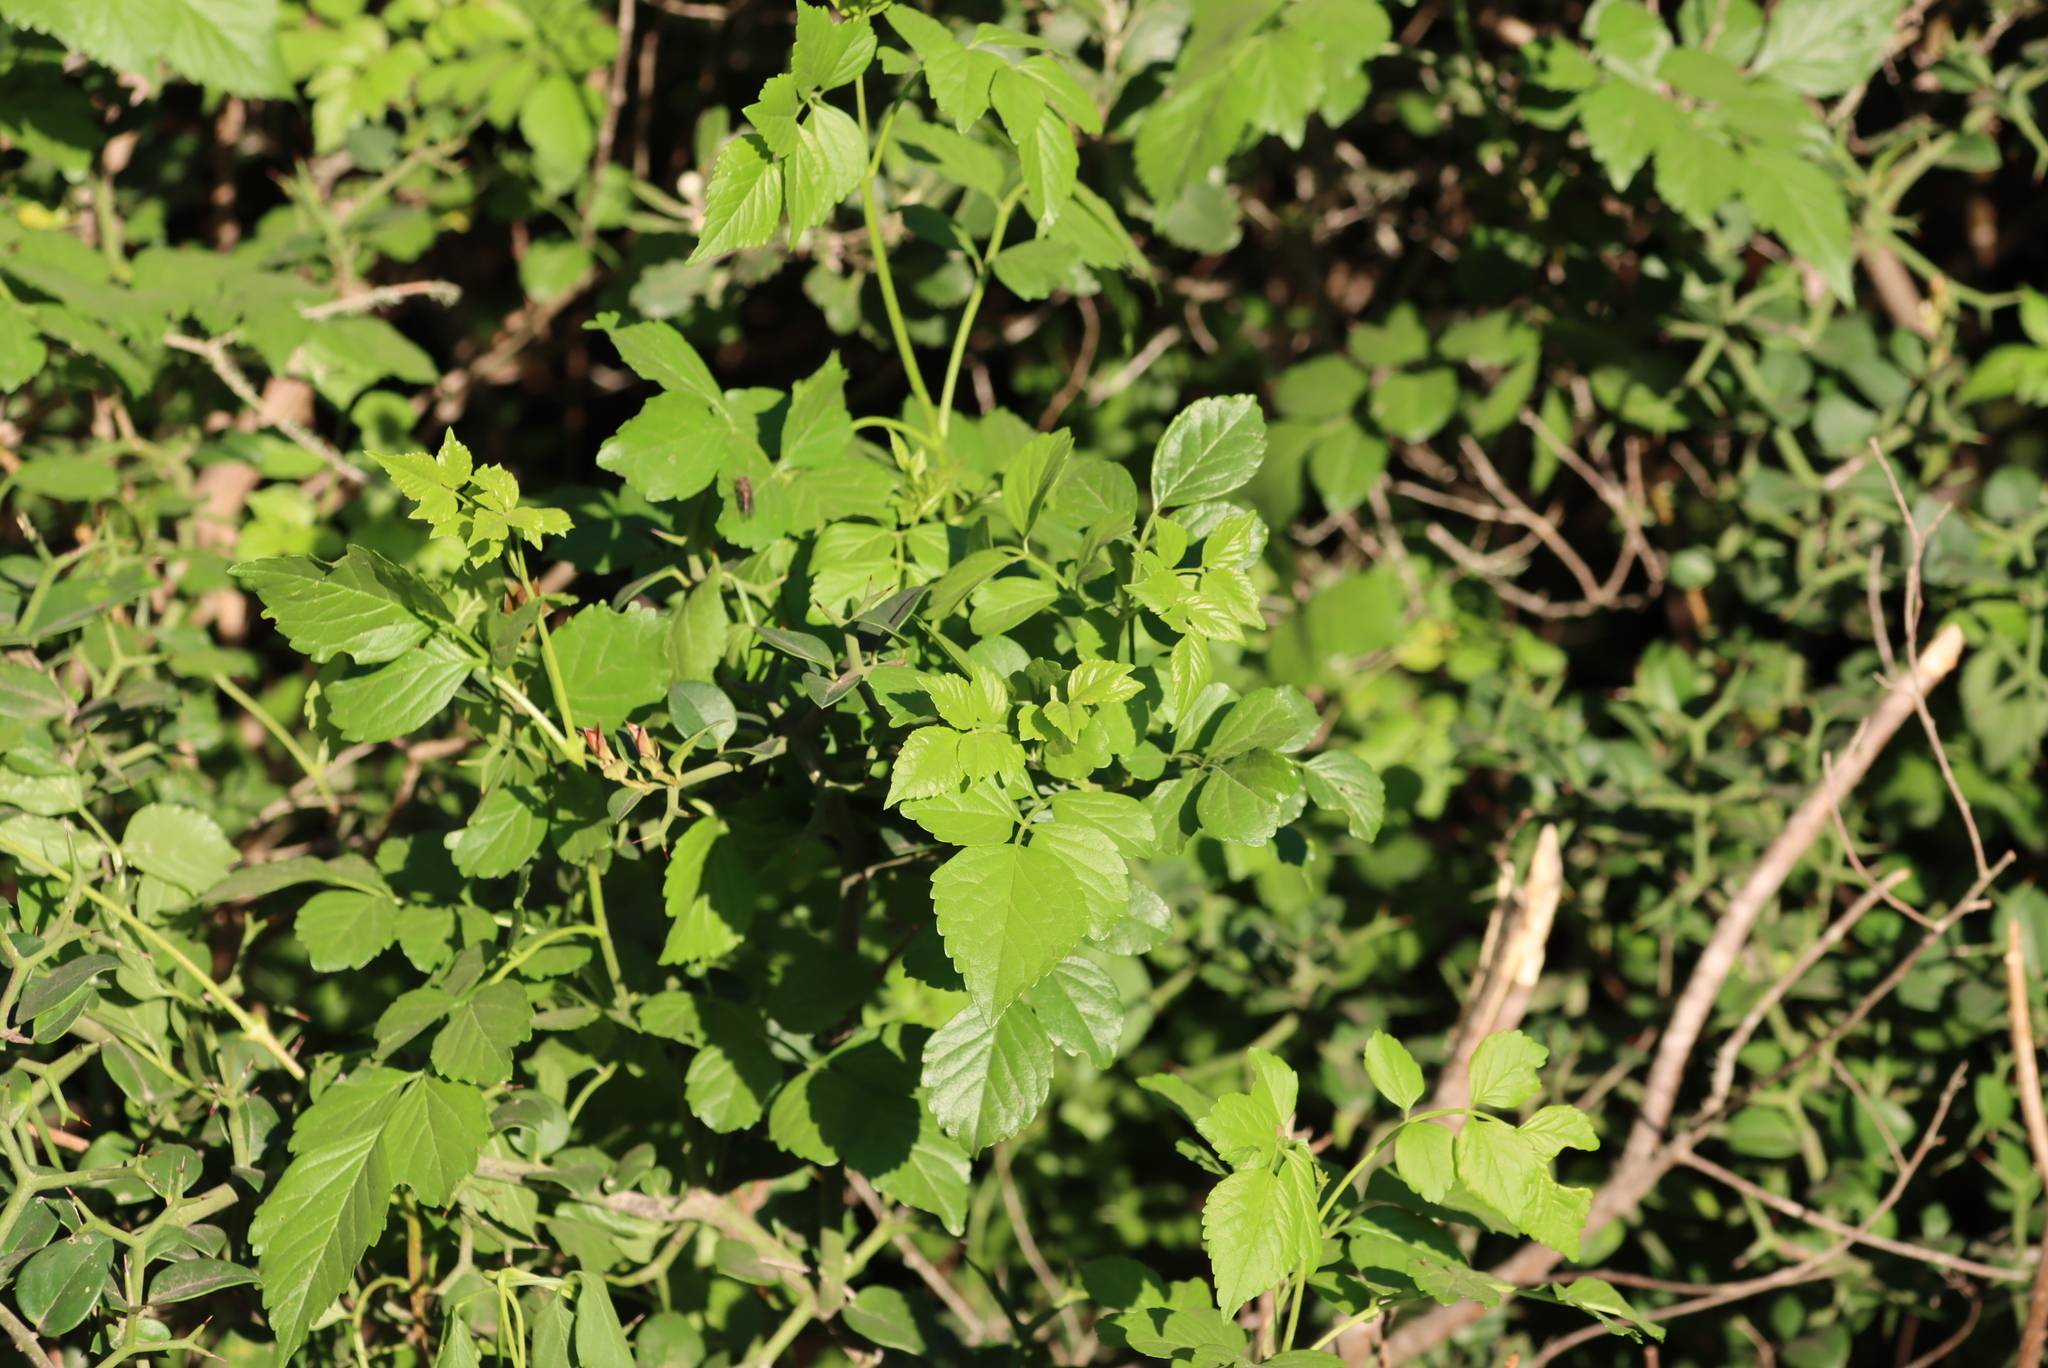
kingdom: Plantae
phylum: Tracheophyta
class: Magnoliopsida
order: Lamiales
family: Bignoniaceae
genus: Tecomaria
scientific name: Tecomaria capensis
